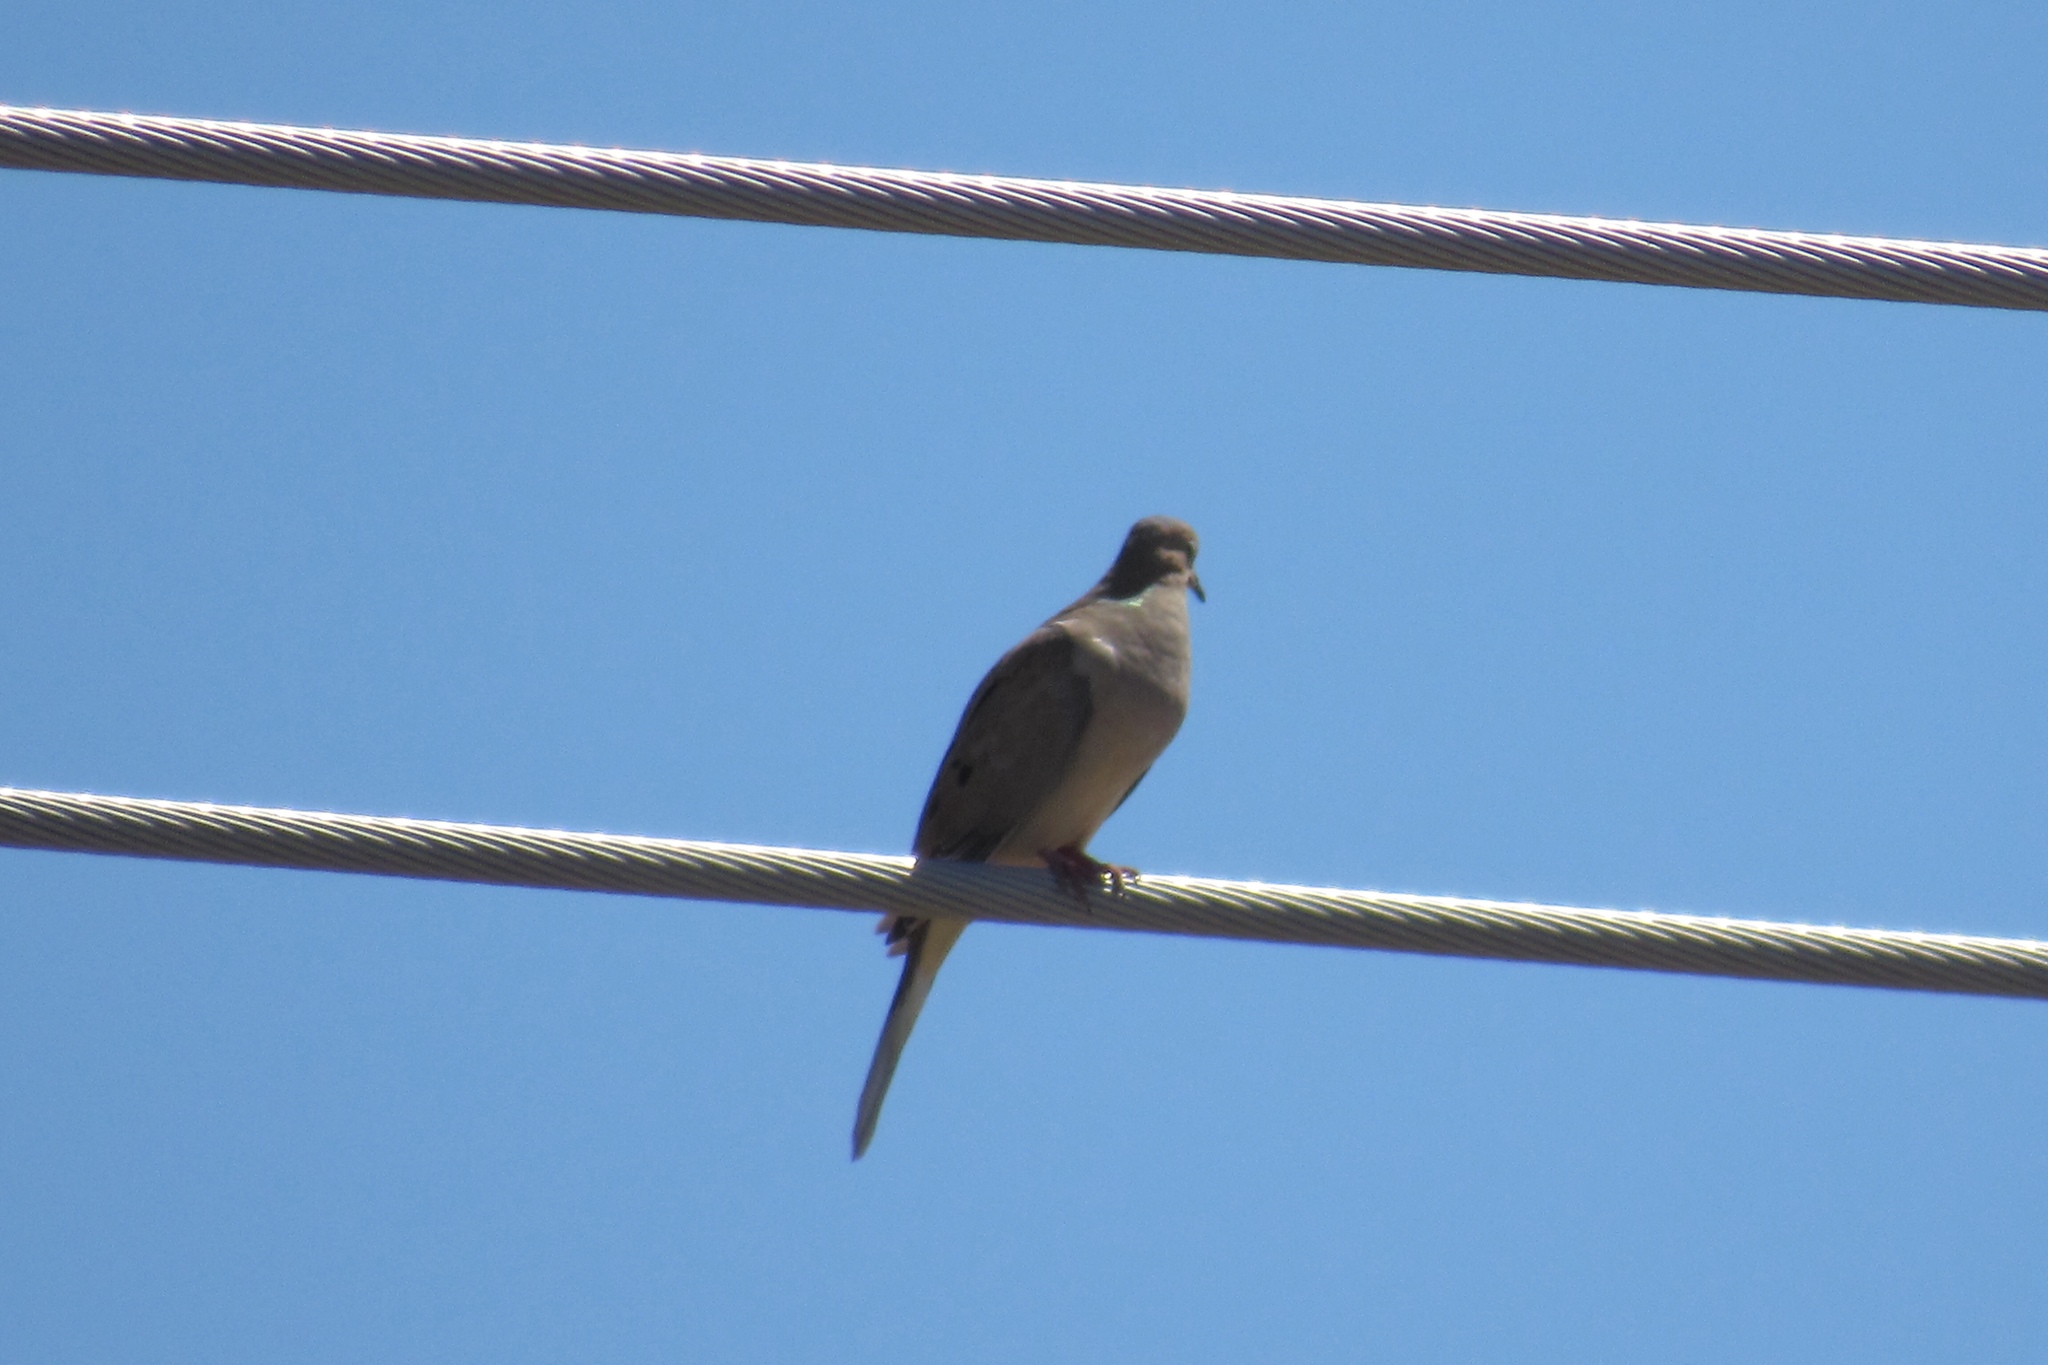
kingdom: Animalia
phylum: Chordata
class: Aves
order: Columbiformes
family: Columbidae
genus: Zenaida
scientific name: Zenaida macroura
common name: Mourning dove
